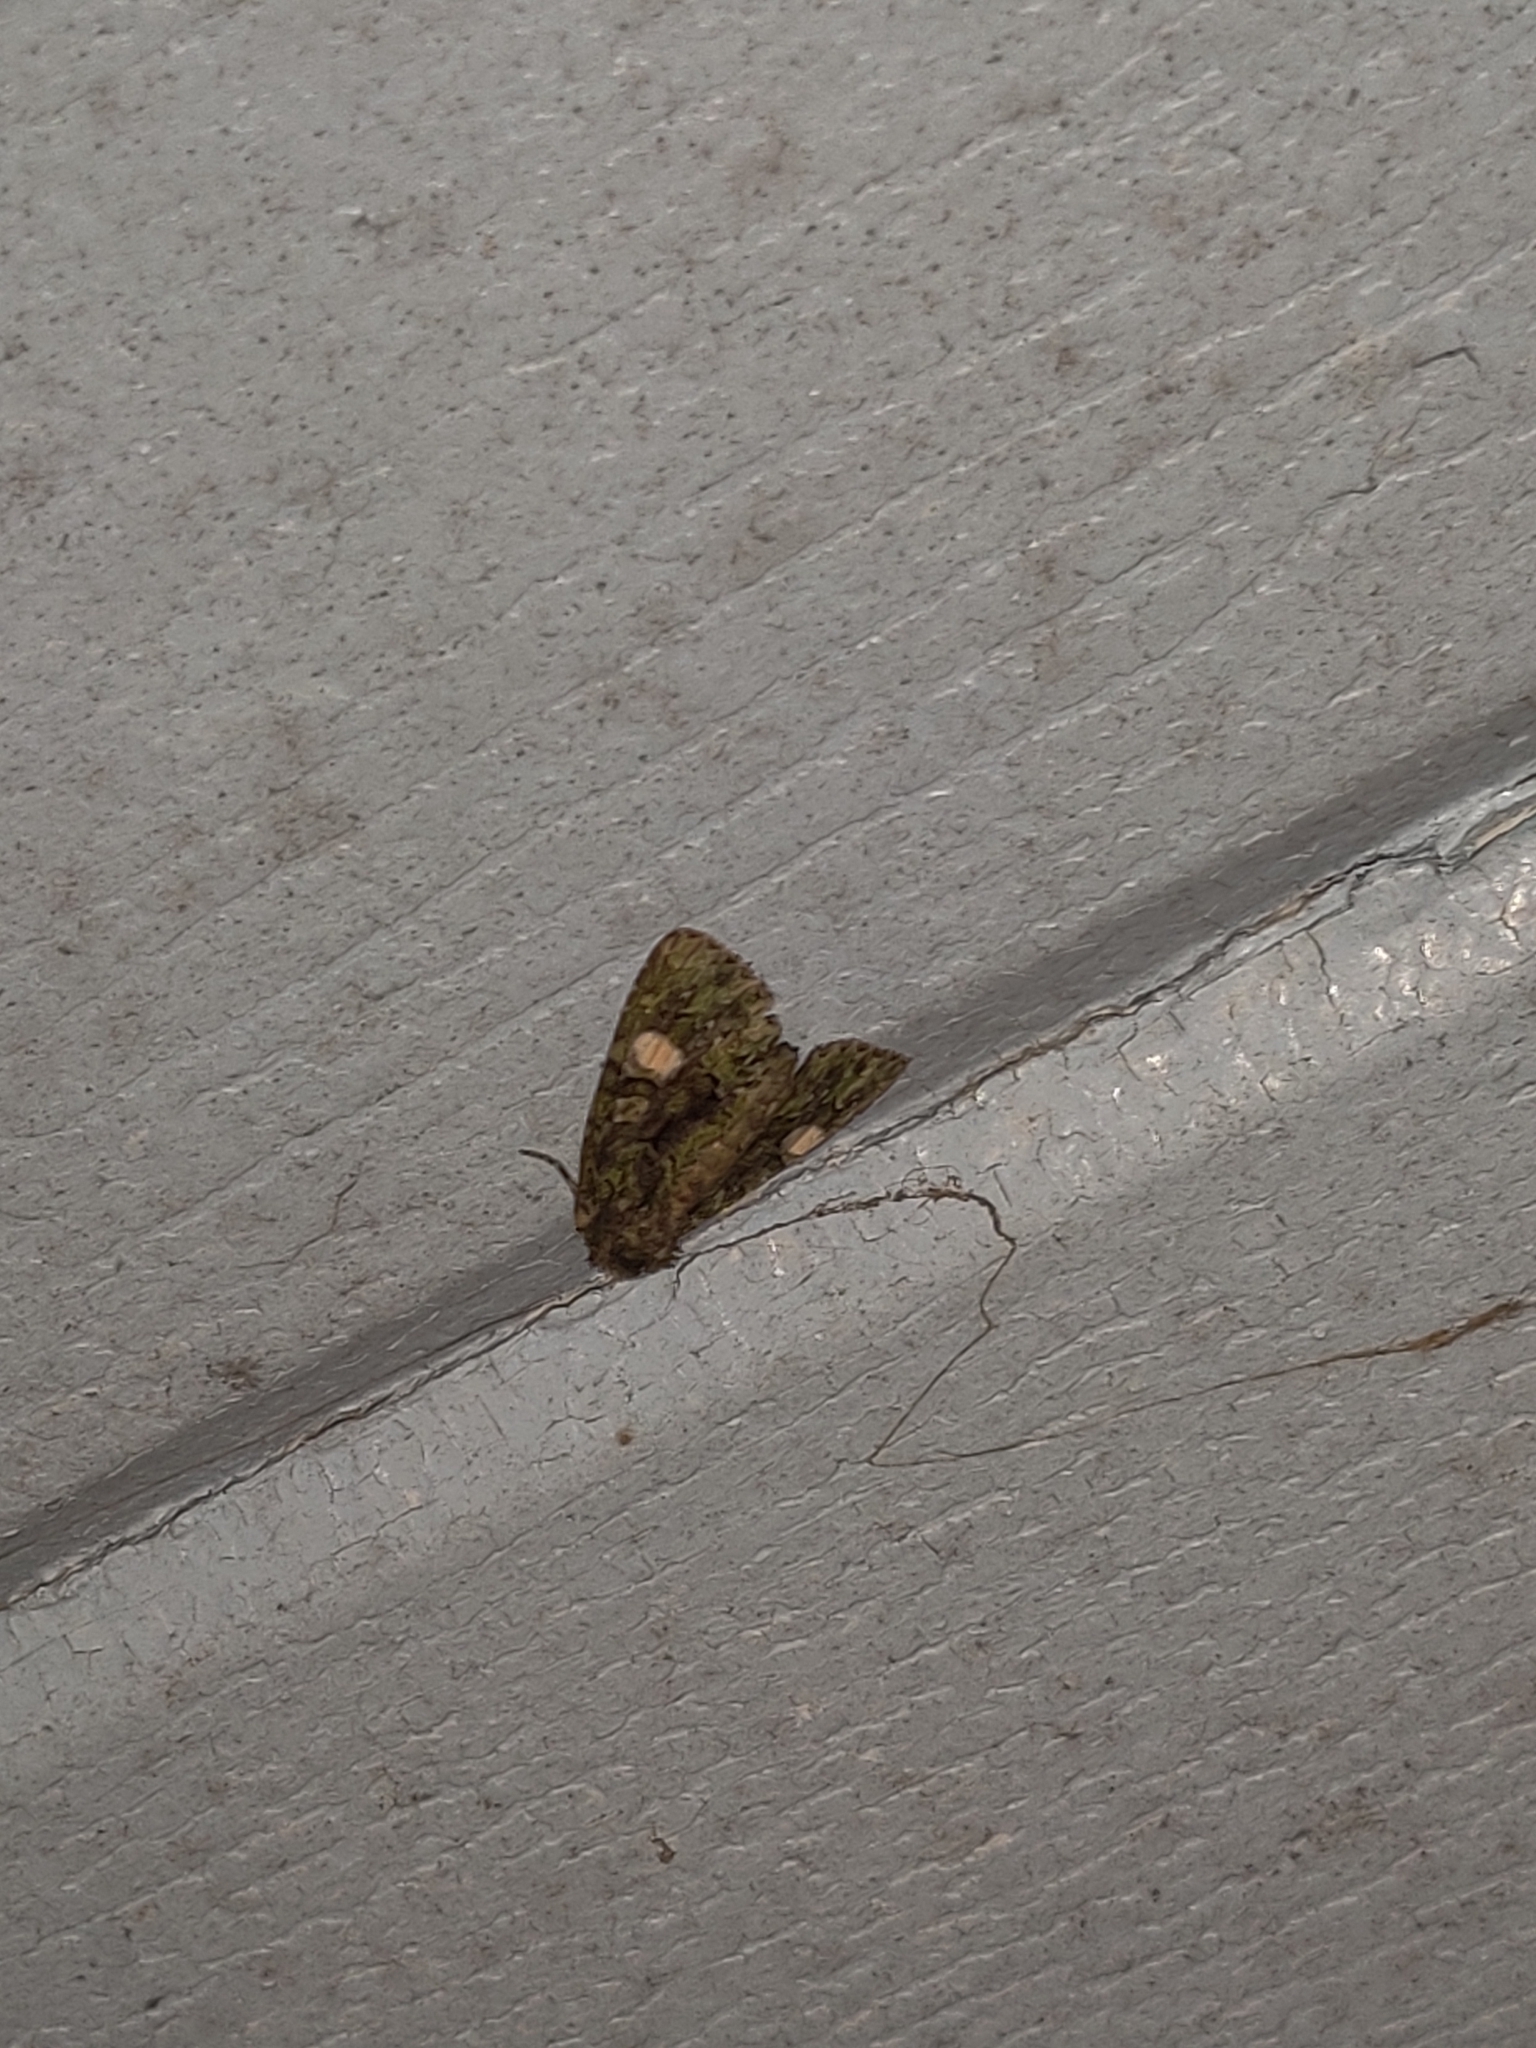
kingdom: Animalia
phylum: Arthropoda
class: Insecta
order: Lepidoptera
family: Noctuidae
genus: Phosphila
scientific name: Phosphila miselioides
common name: Spotted phosphila moth
